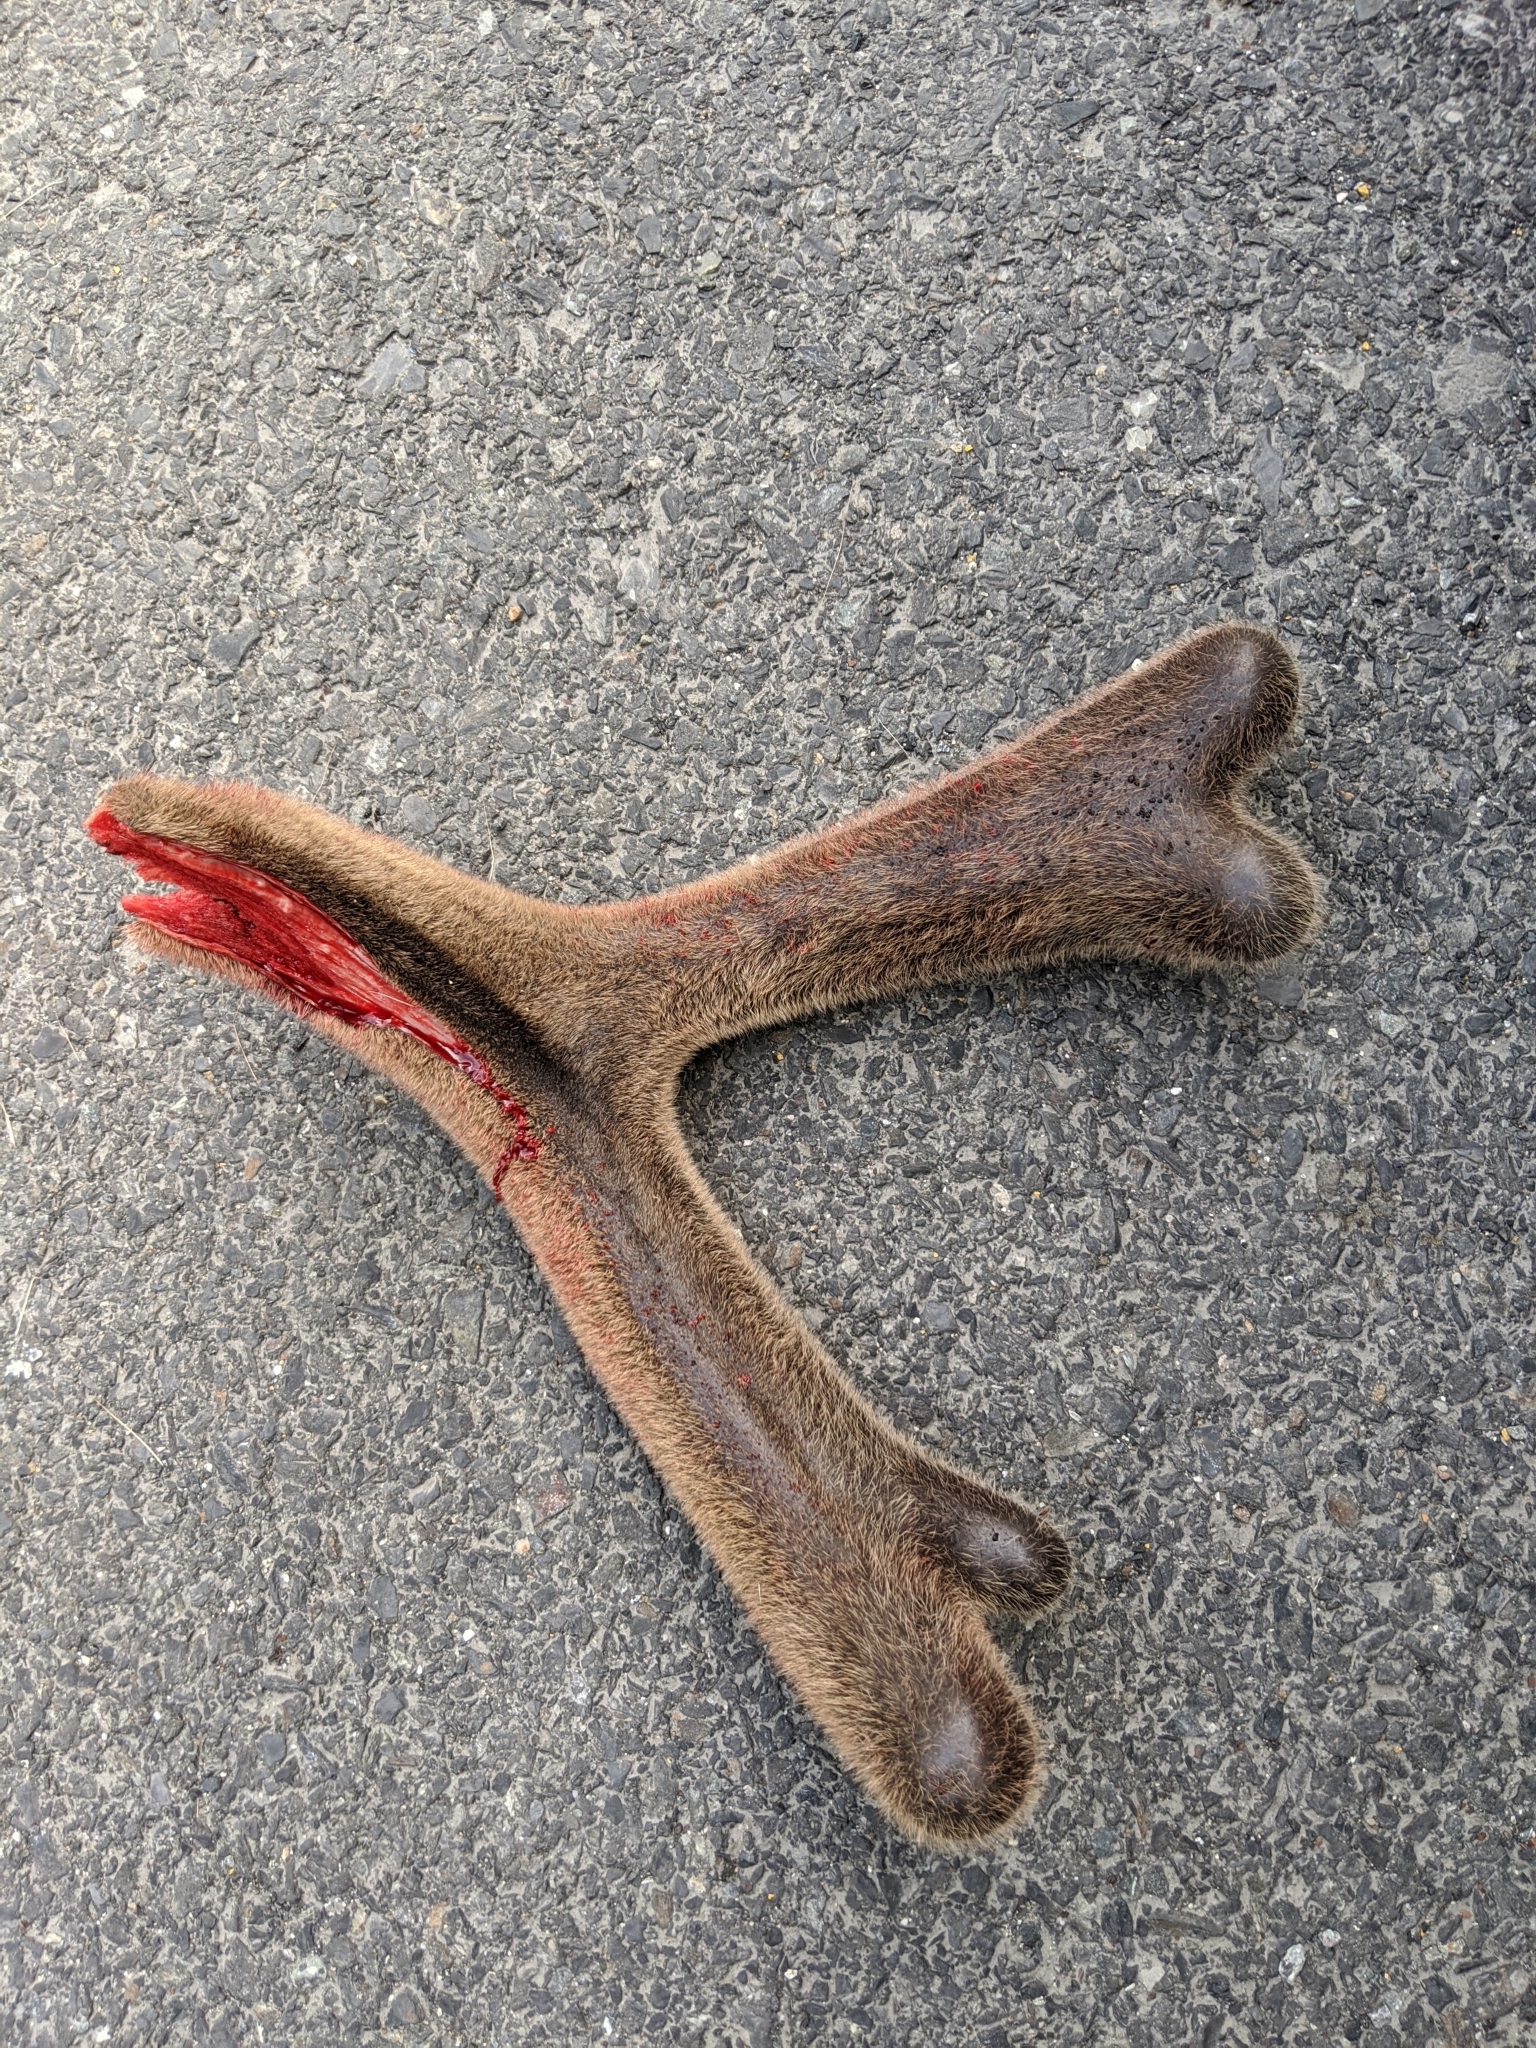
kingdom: Animalia
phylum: Chordata
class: Mammalia
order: Artiodactyla
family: Cervidae
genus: Odocoileus
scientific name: Odocoileus hemionus
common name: Mule deer
